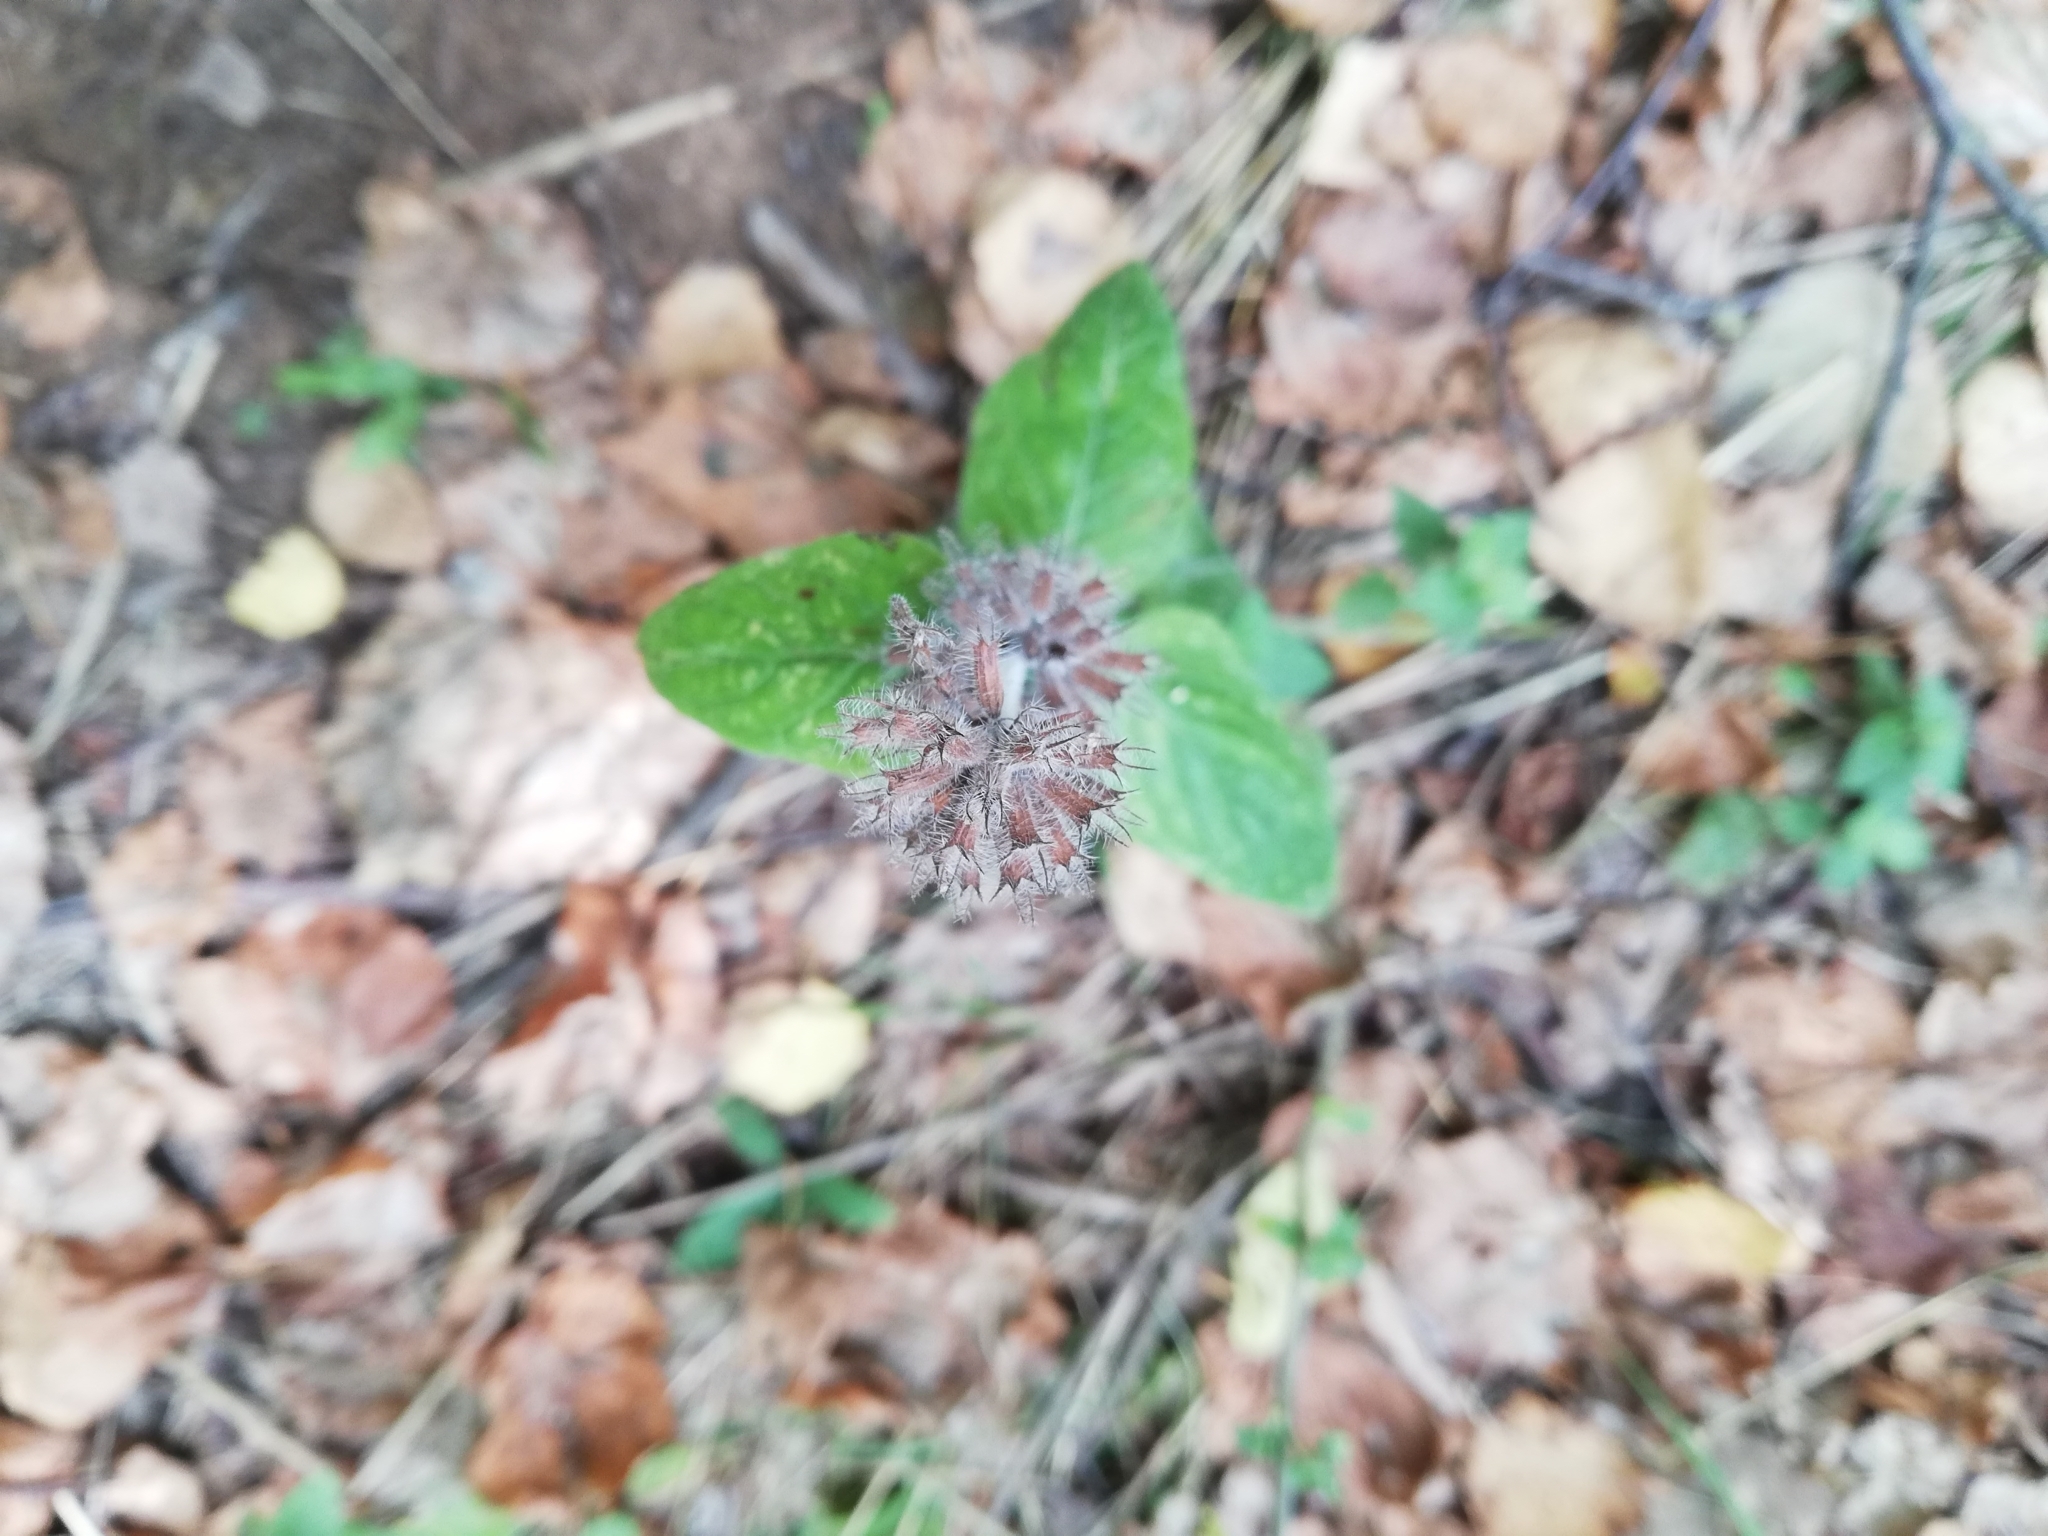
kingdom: Plantae
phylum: Tracheophyta
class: Magnoliopsida
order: Lamiales
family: Lamiaceae
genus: Clinopodium
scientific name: Clinopodium vulgare
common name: Wild basil
